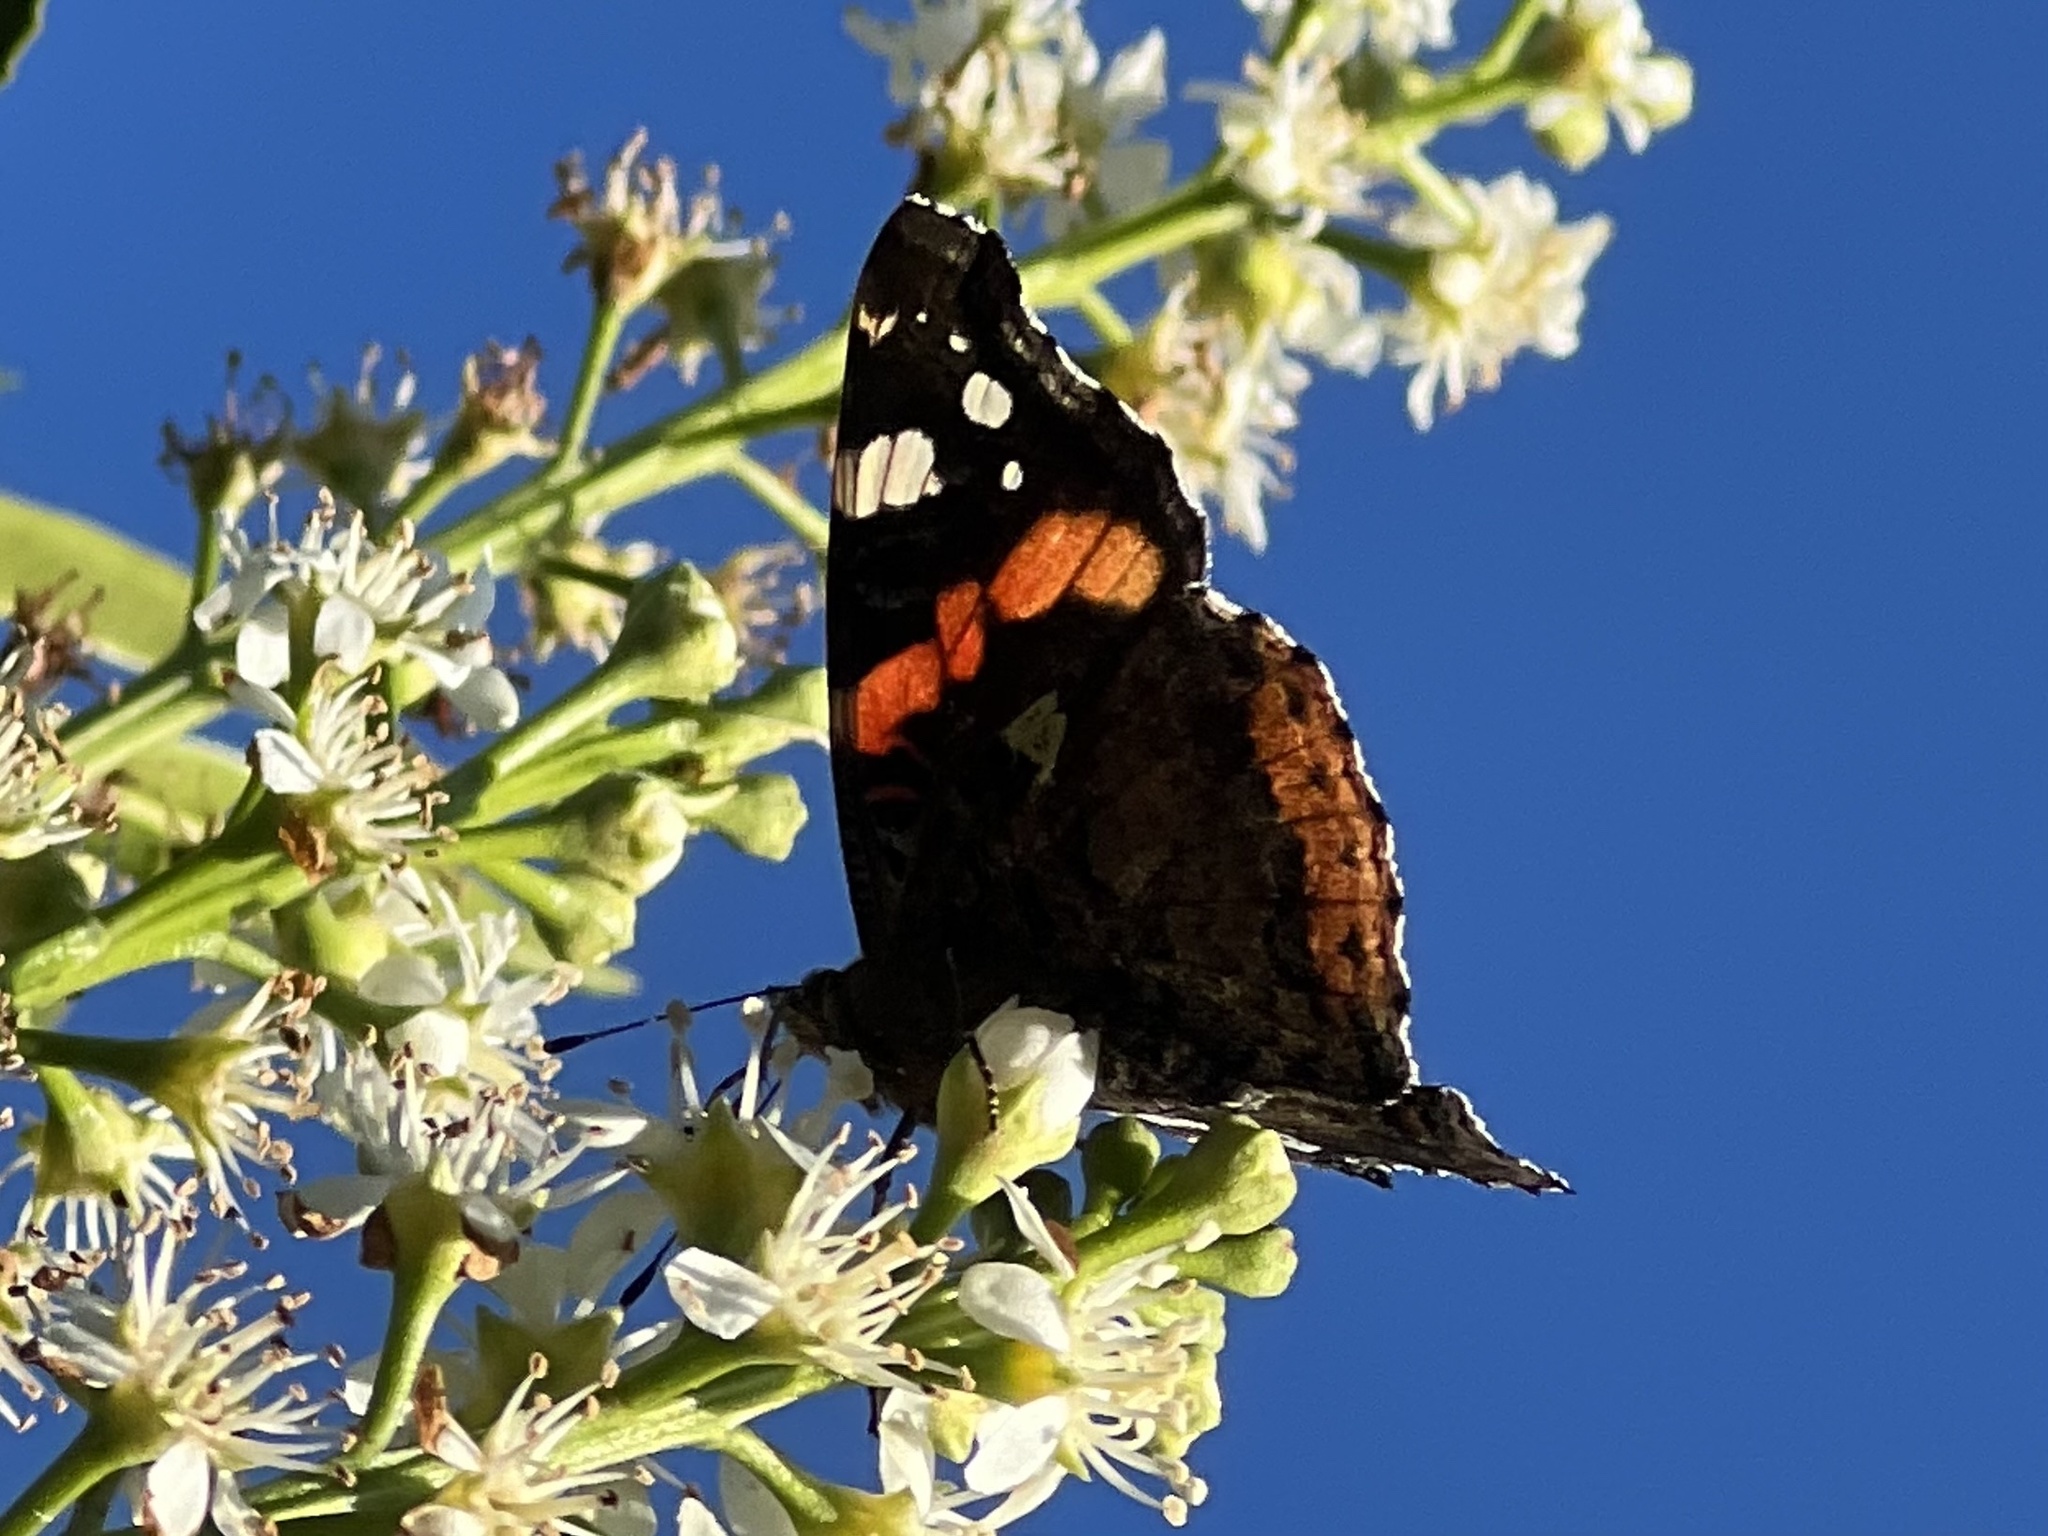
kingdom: Animalia
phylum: Arthropoda
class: Insecta
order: Lepidoptera
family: Nymphalidae
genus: Vanessa
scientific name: Vanessa atalanta
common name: Red admiral
